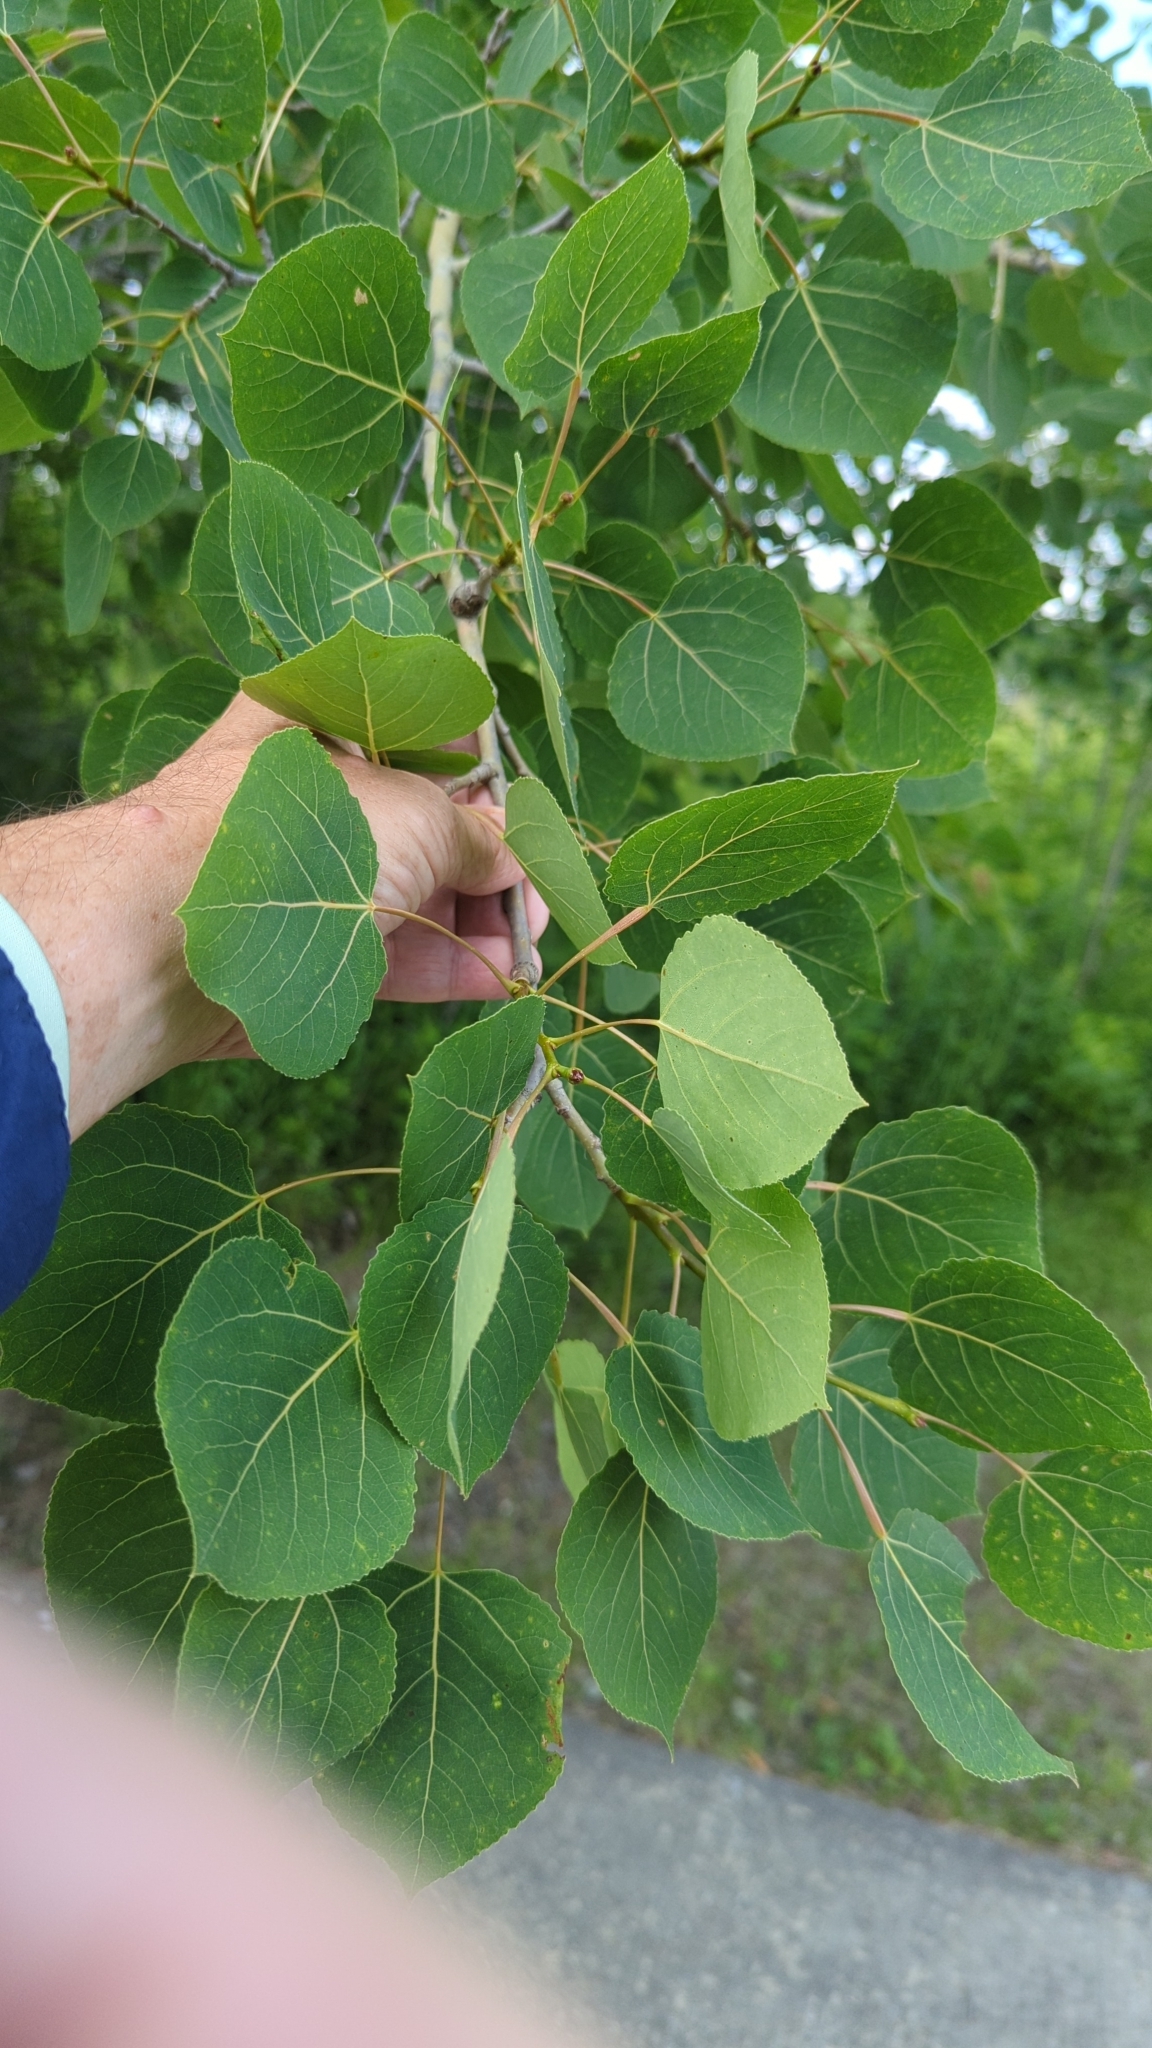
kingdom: Plantae
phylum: Tracheophyta
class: Magnoliopsida
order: Malpighiales
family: Salicaceae
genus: Populus
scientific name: Populus tremuloides
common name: Quaking aspen
